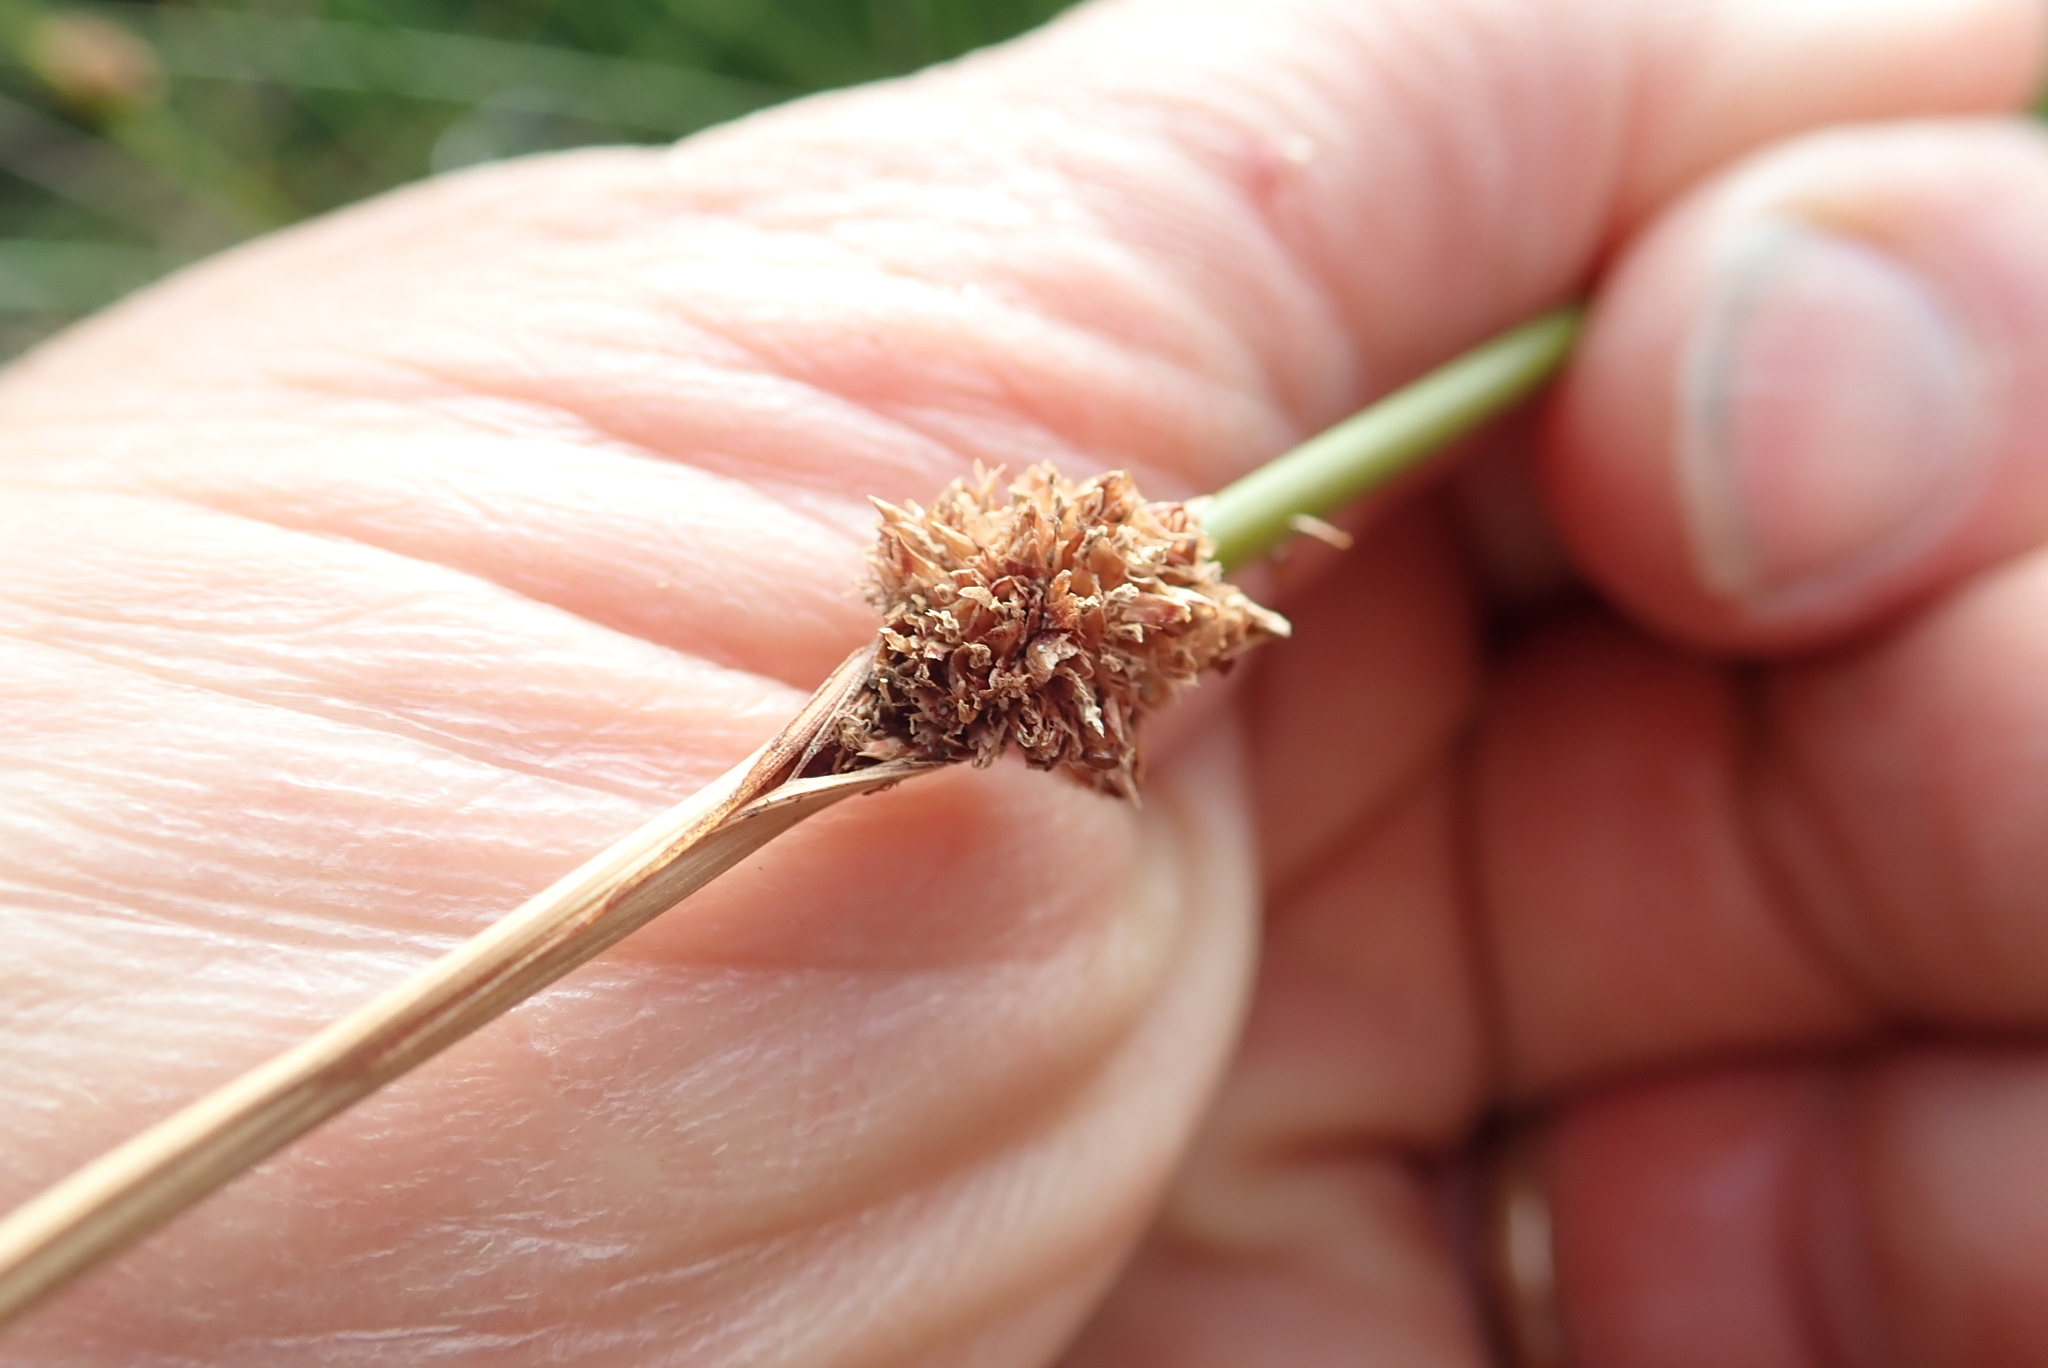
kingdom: Plantae
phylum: Tracheophyta
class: Liliopsida
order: Poales
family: Cyperaceae
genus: Ficinia
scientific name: Ficinia nodosa
